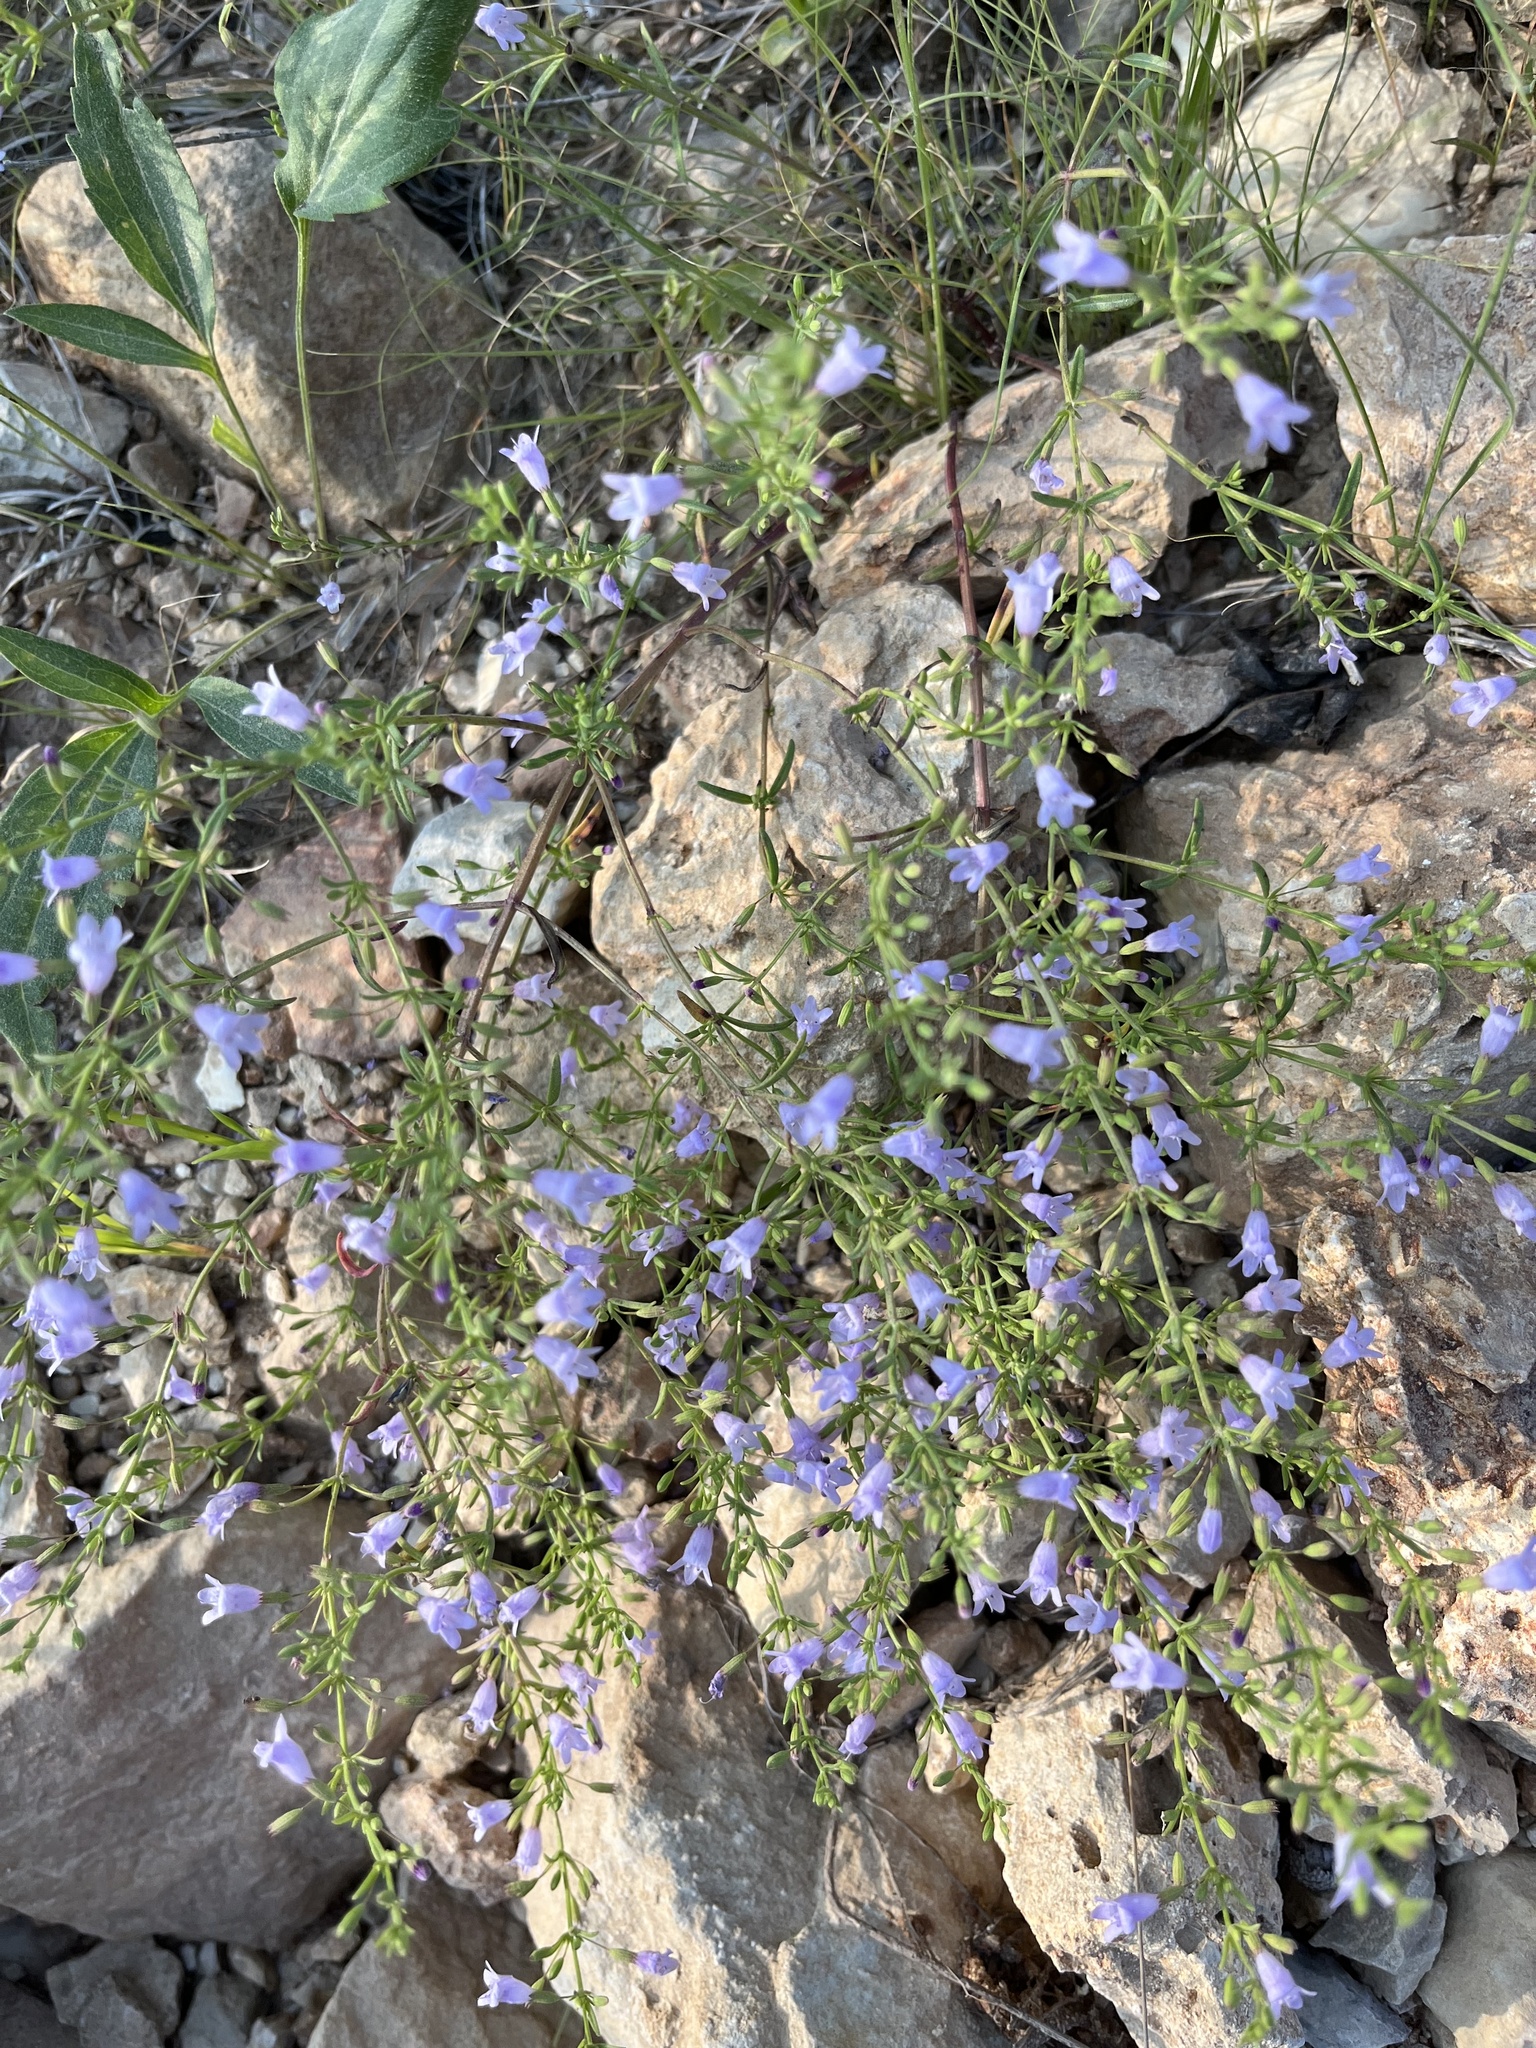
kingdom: Plantae
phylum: Tracheophyta
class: Magnoliopsida
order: Lamiales
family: Lamiaceae
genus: Clinopodium
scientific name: Clinopodium arkansanum
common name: Limestone calamint
